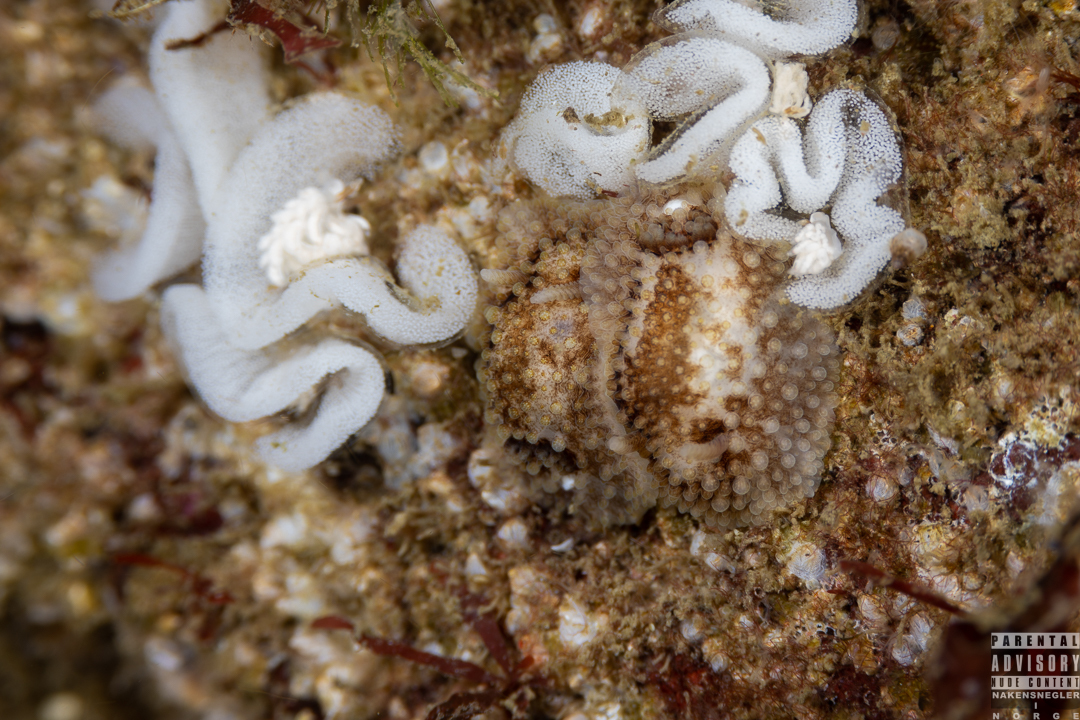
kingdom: Animalia
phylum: Mollusca
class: Gastropoda
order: Nudibranchia
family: Onchidorididae
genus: Onchidoris
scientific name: Onchidoris bilamellata
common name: Barnacle-eating onchidoris
